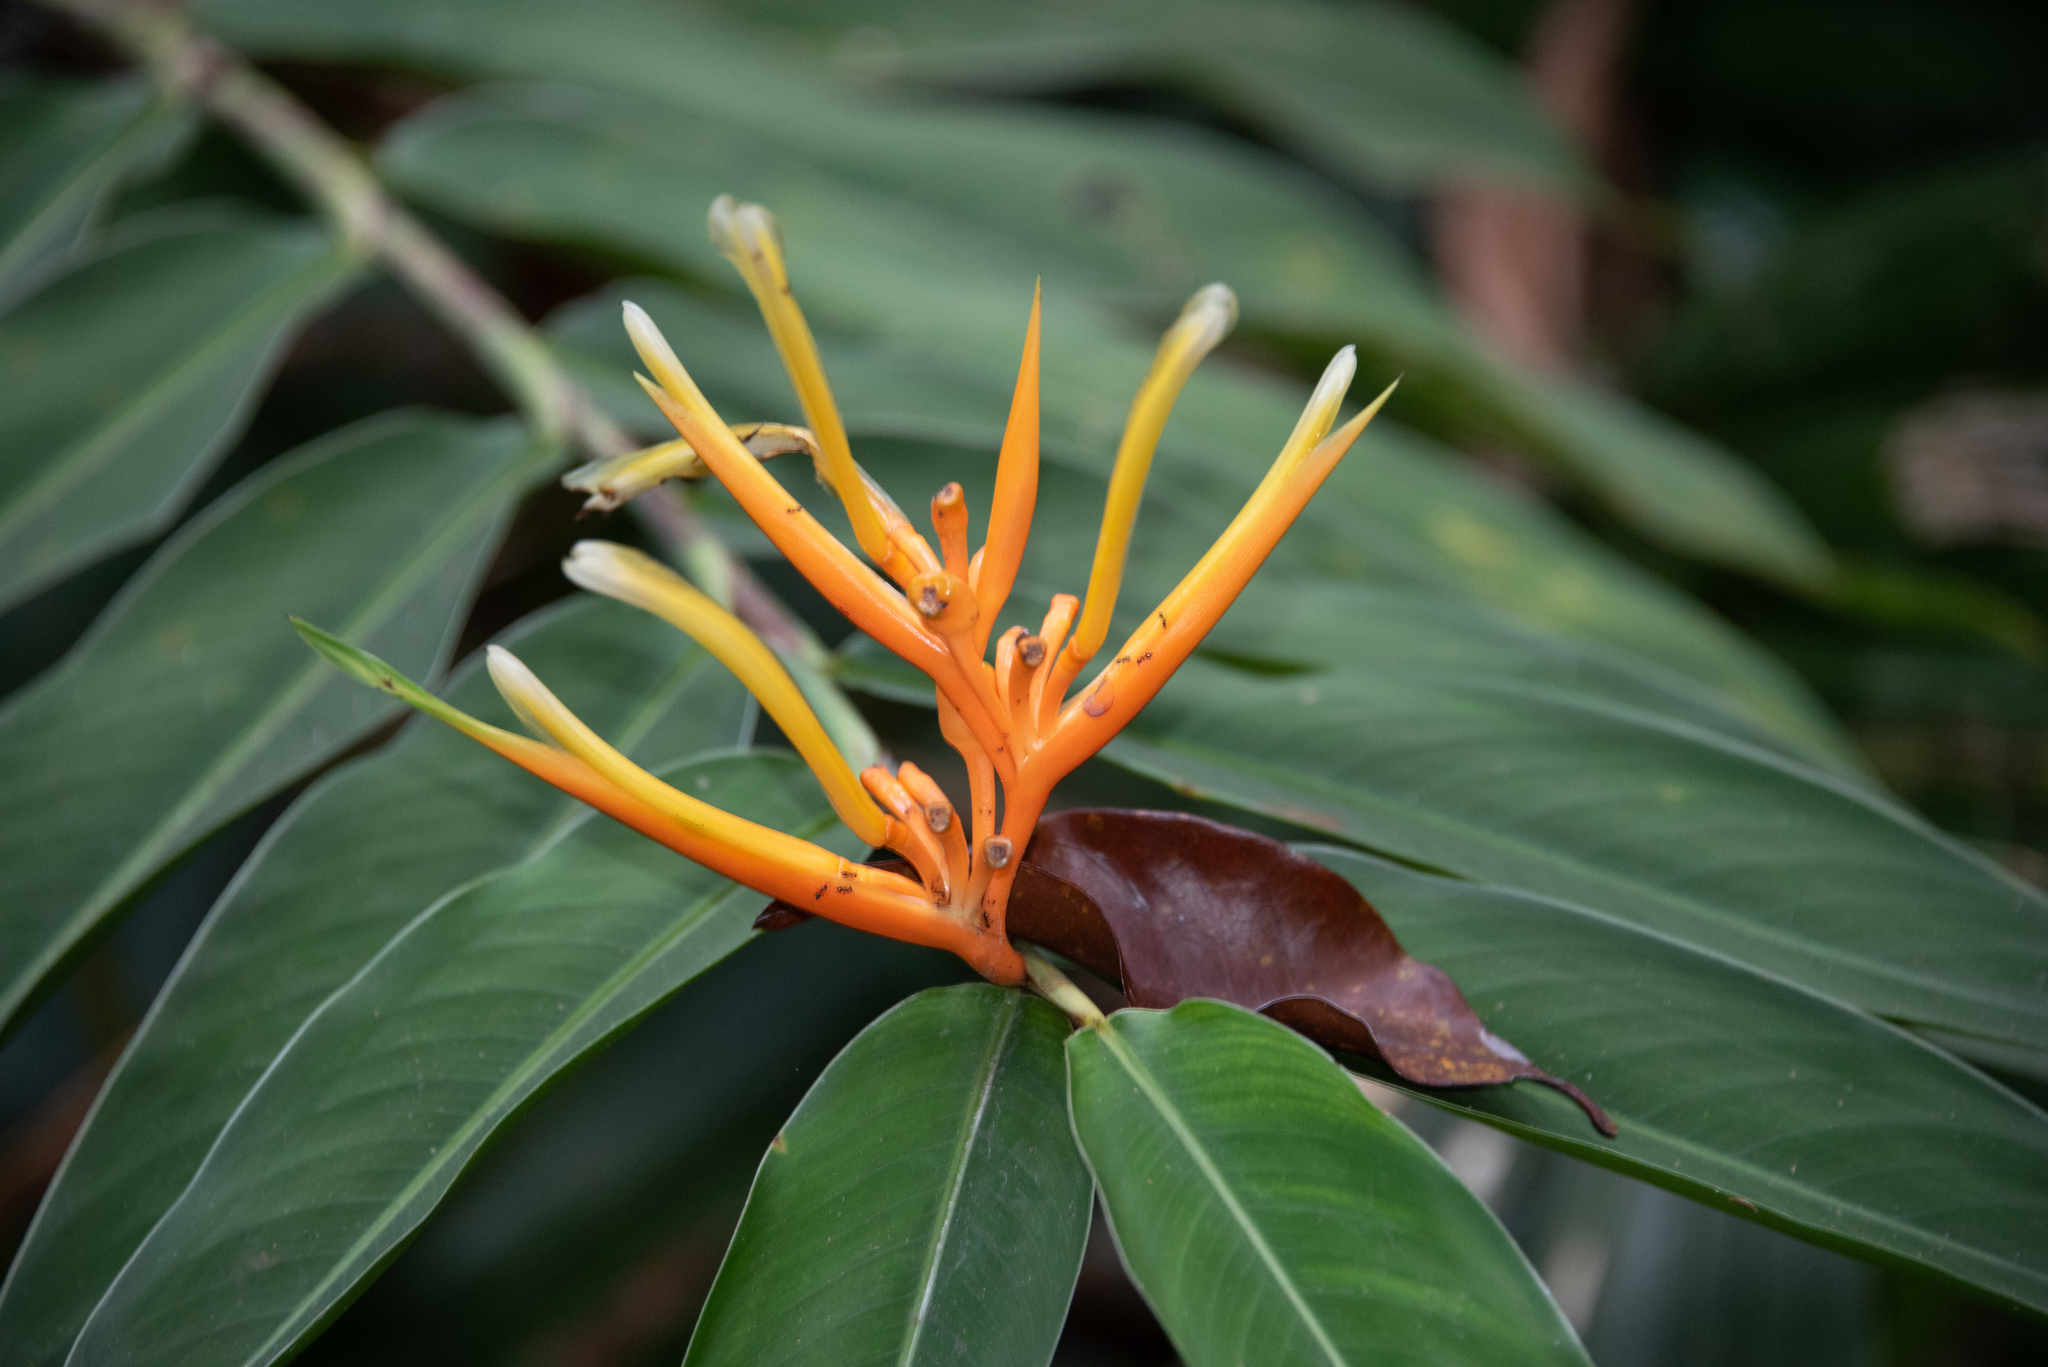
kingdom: Plantae
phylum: Tracheophyta
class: Liliopsida
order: Zingiberales
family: Heliconiaceae
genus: Heliconia
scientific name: Heliconia longiflora
